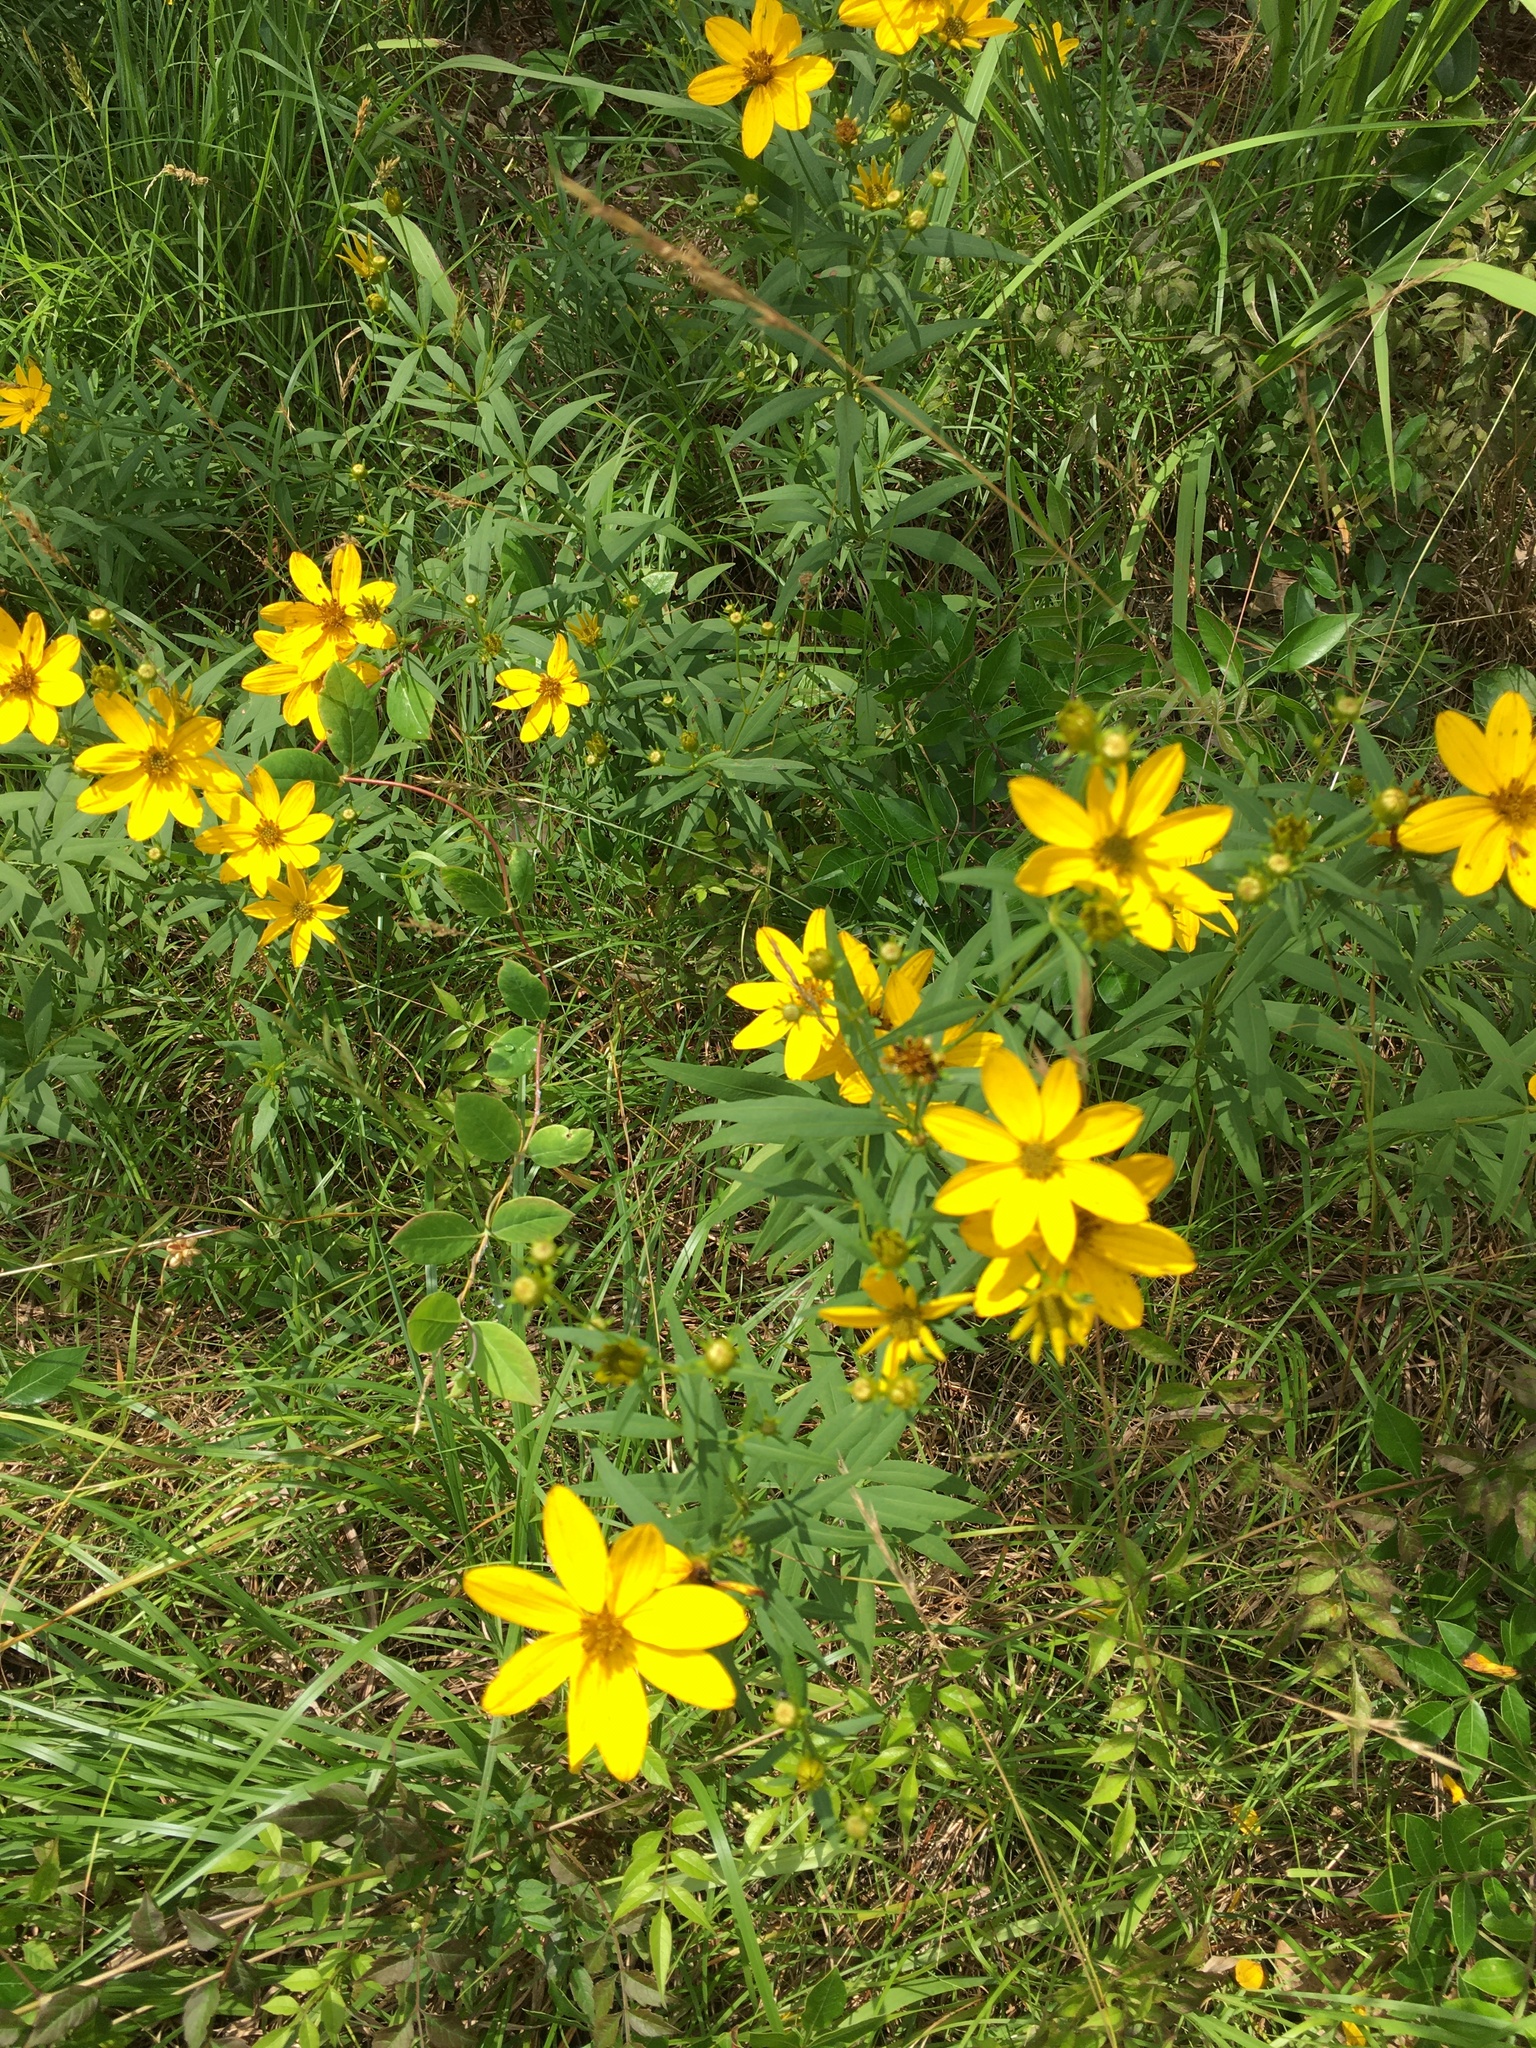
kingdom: Plantae
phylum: Tracheophyta
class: Magnoliopsida
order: Asterales
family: Asteraceae
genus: Coreopsis
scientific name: Coreopsis major
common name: Forest tickseed
